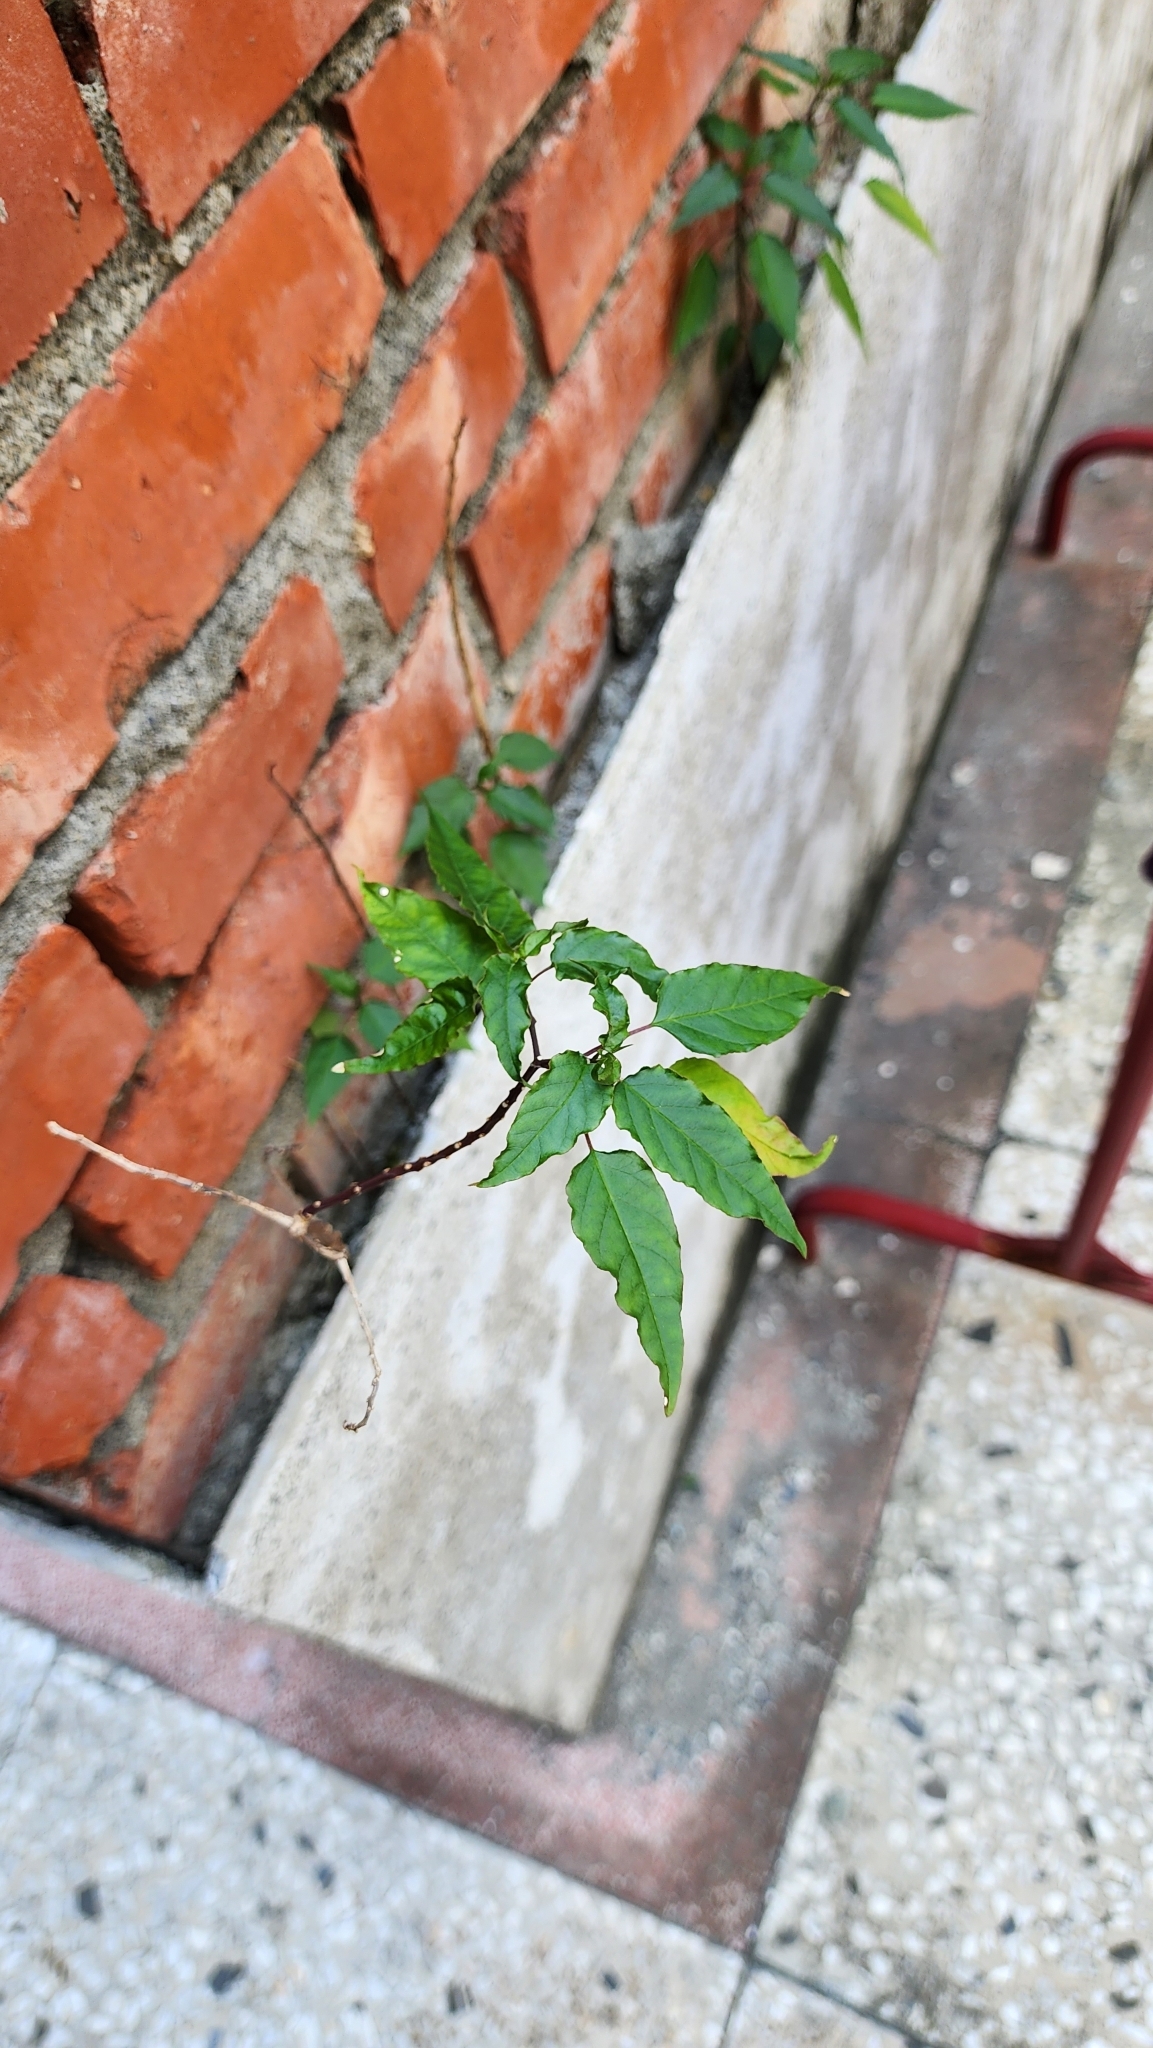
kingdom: Plantae
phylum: Tracheophyta
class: Magnoliopsida
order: Caryophyllales
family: Phytolaccaceae
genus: Rivina
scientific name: Rivina humilis
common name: Rougeplant
